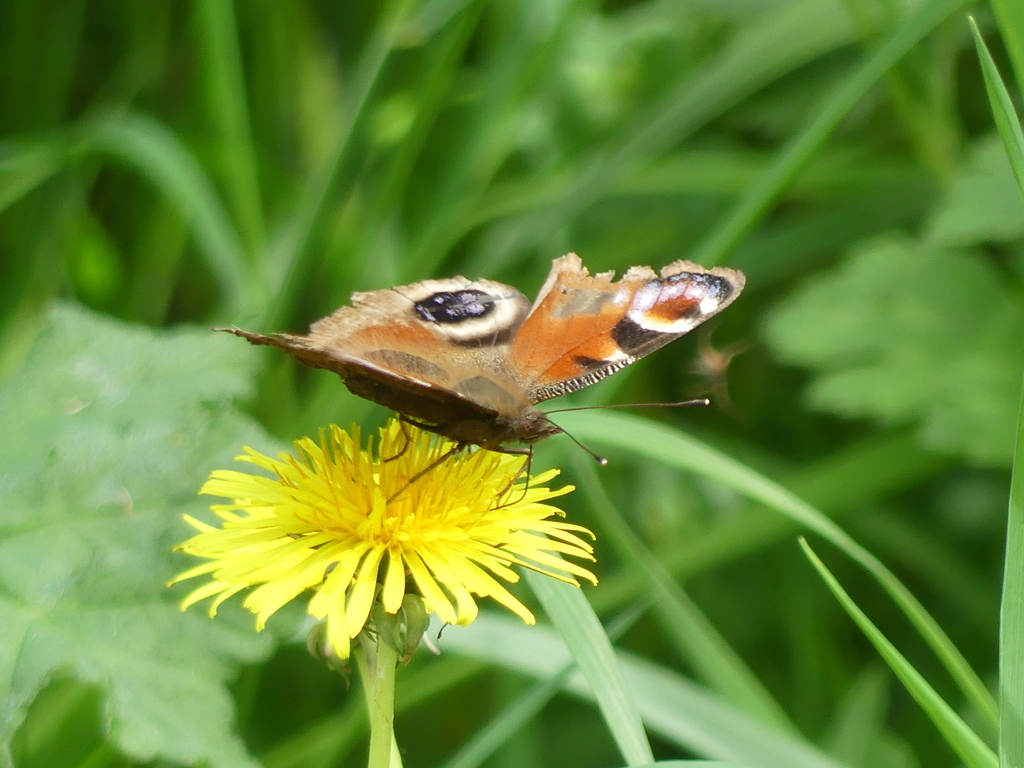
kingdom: Animalia
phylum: Arthropoda
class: Insecta
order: Lepidoptera
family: Nymphalidae
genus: Aglais
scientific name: Aglais io
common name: Peacock
